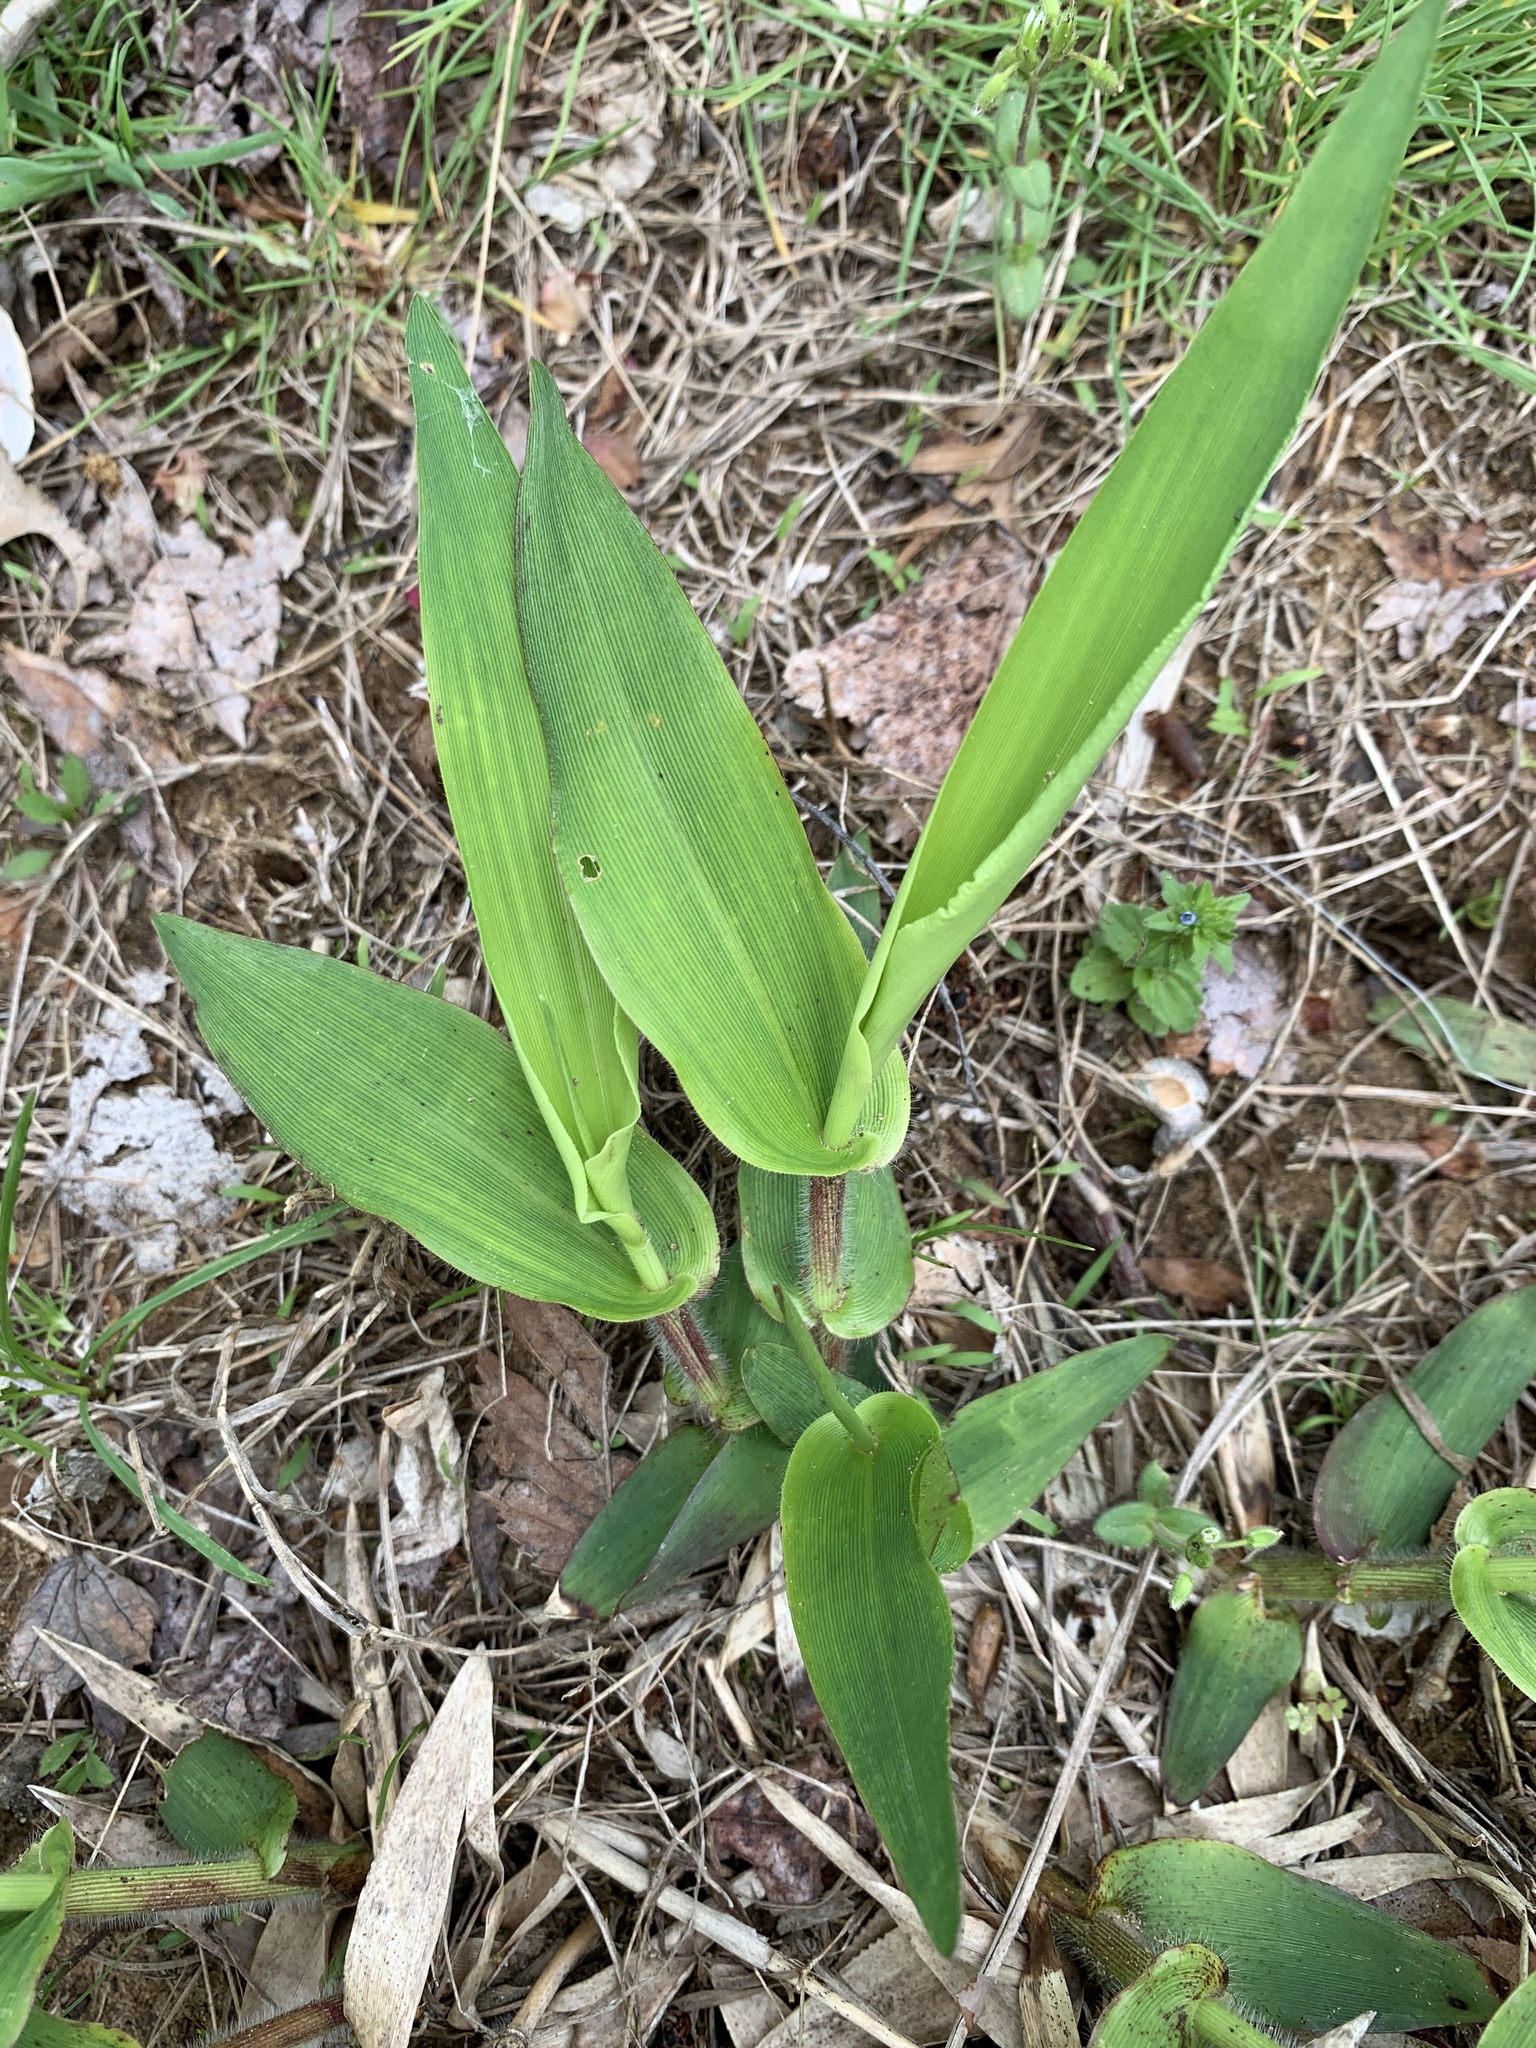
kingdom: Plantae
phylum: Tracheophyta
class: Liliopsida
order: Poales
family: Poaceae
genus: Dichanthelium
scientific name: Dichanthelium clandestinum
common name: Deer-tongue grass
